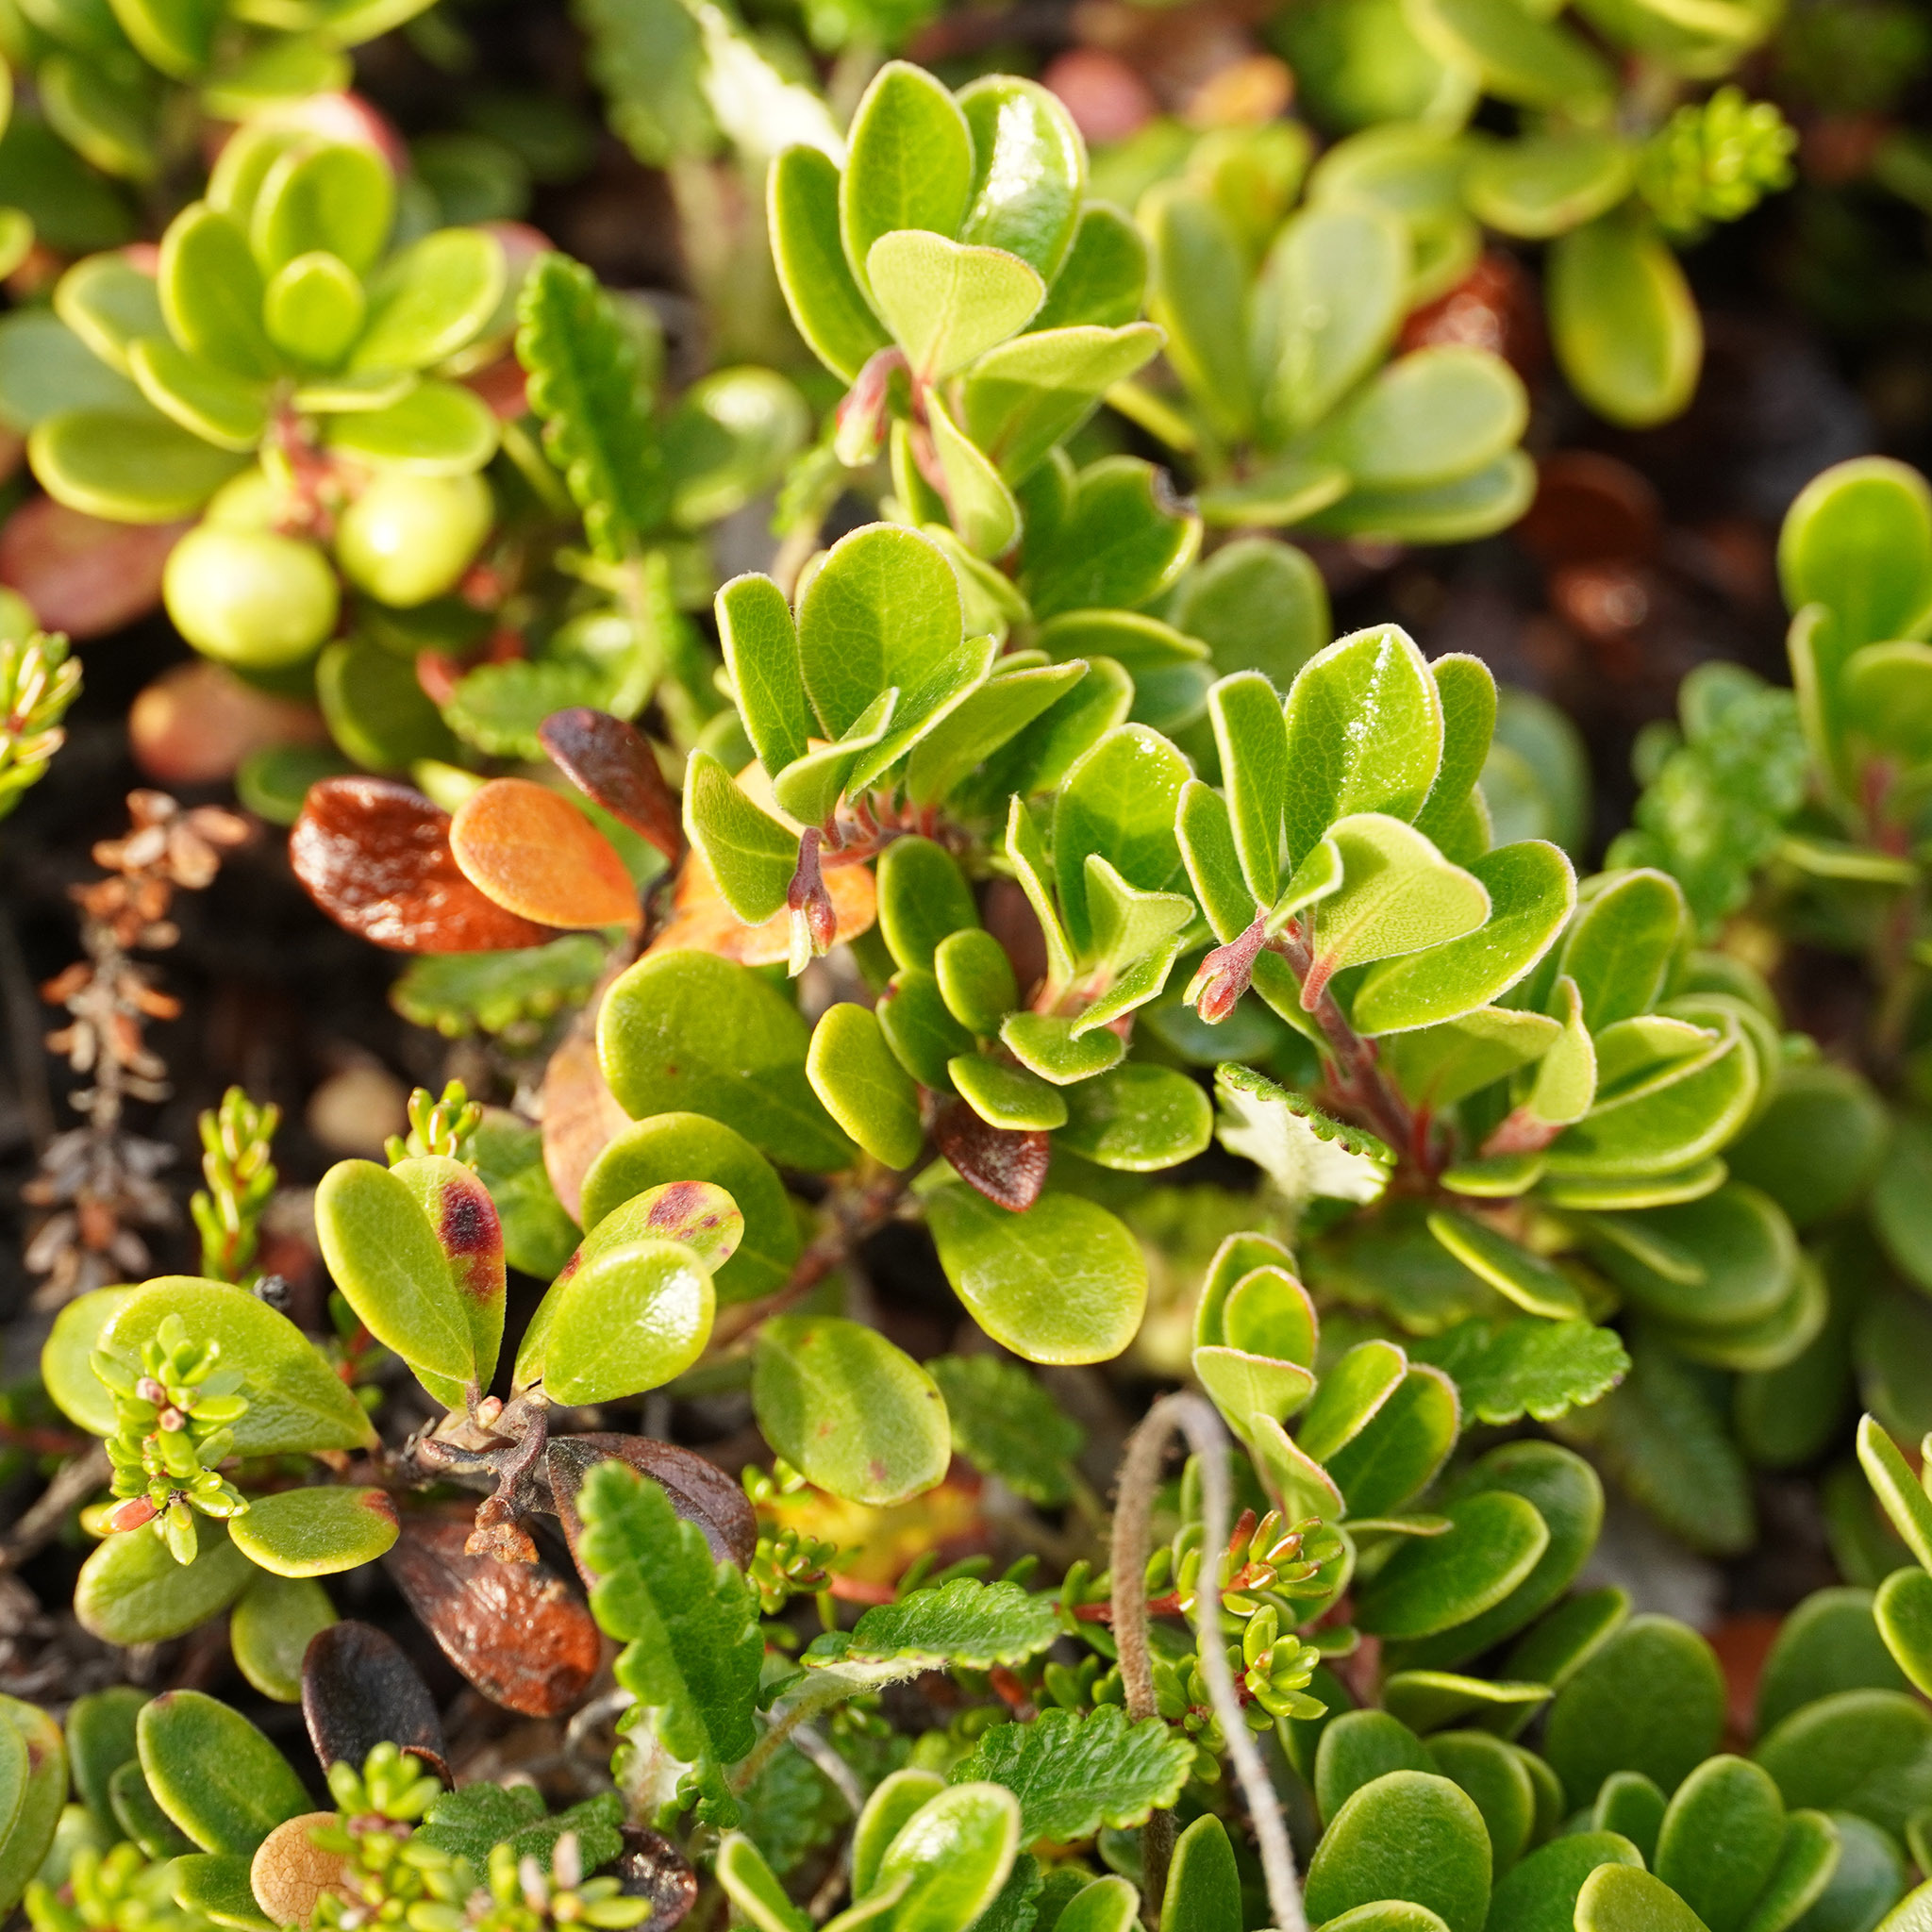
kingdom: Plantae
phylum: Tracheophyta
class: Magnoliopsida
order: Ericales
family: Ericaceae
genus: Arctostaphylos
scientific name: Arctostaphylos uva-ursi
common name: Bearberry
